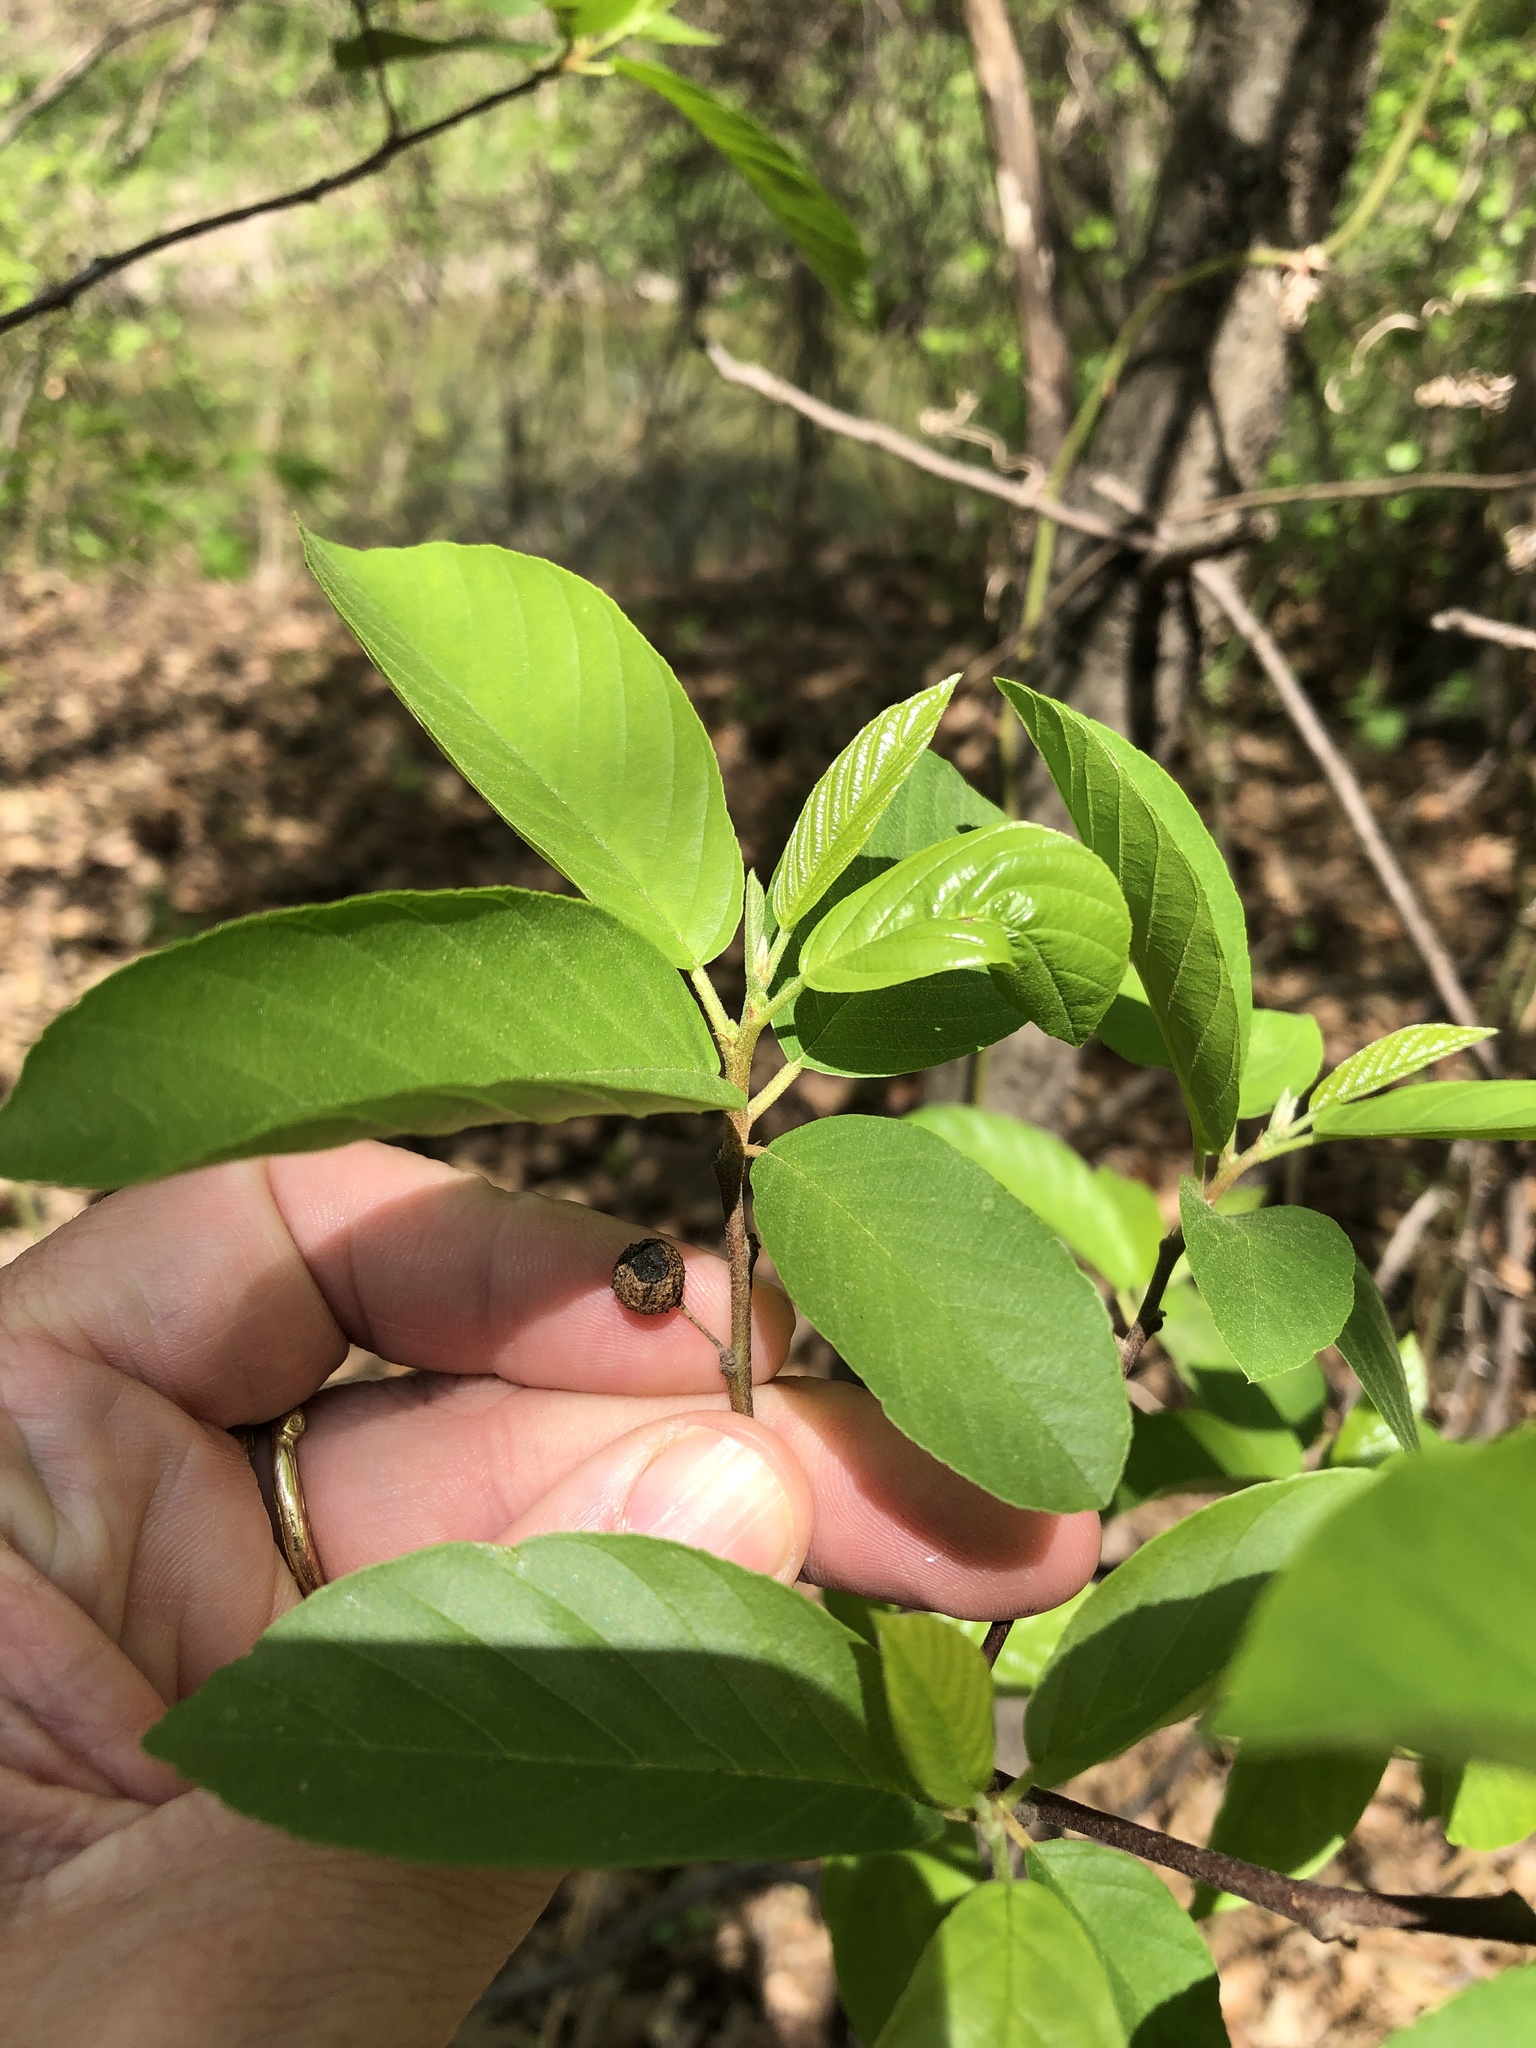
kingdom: Plantae
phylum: Tracheophyta
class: Magnoliopsida
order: Rosales
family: Rhamnaceae
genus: Frangula
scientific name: Frangula caroliniana
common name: Carolina buckthorn
